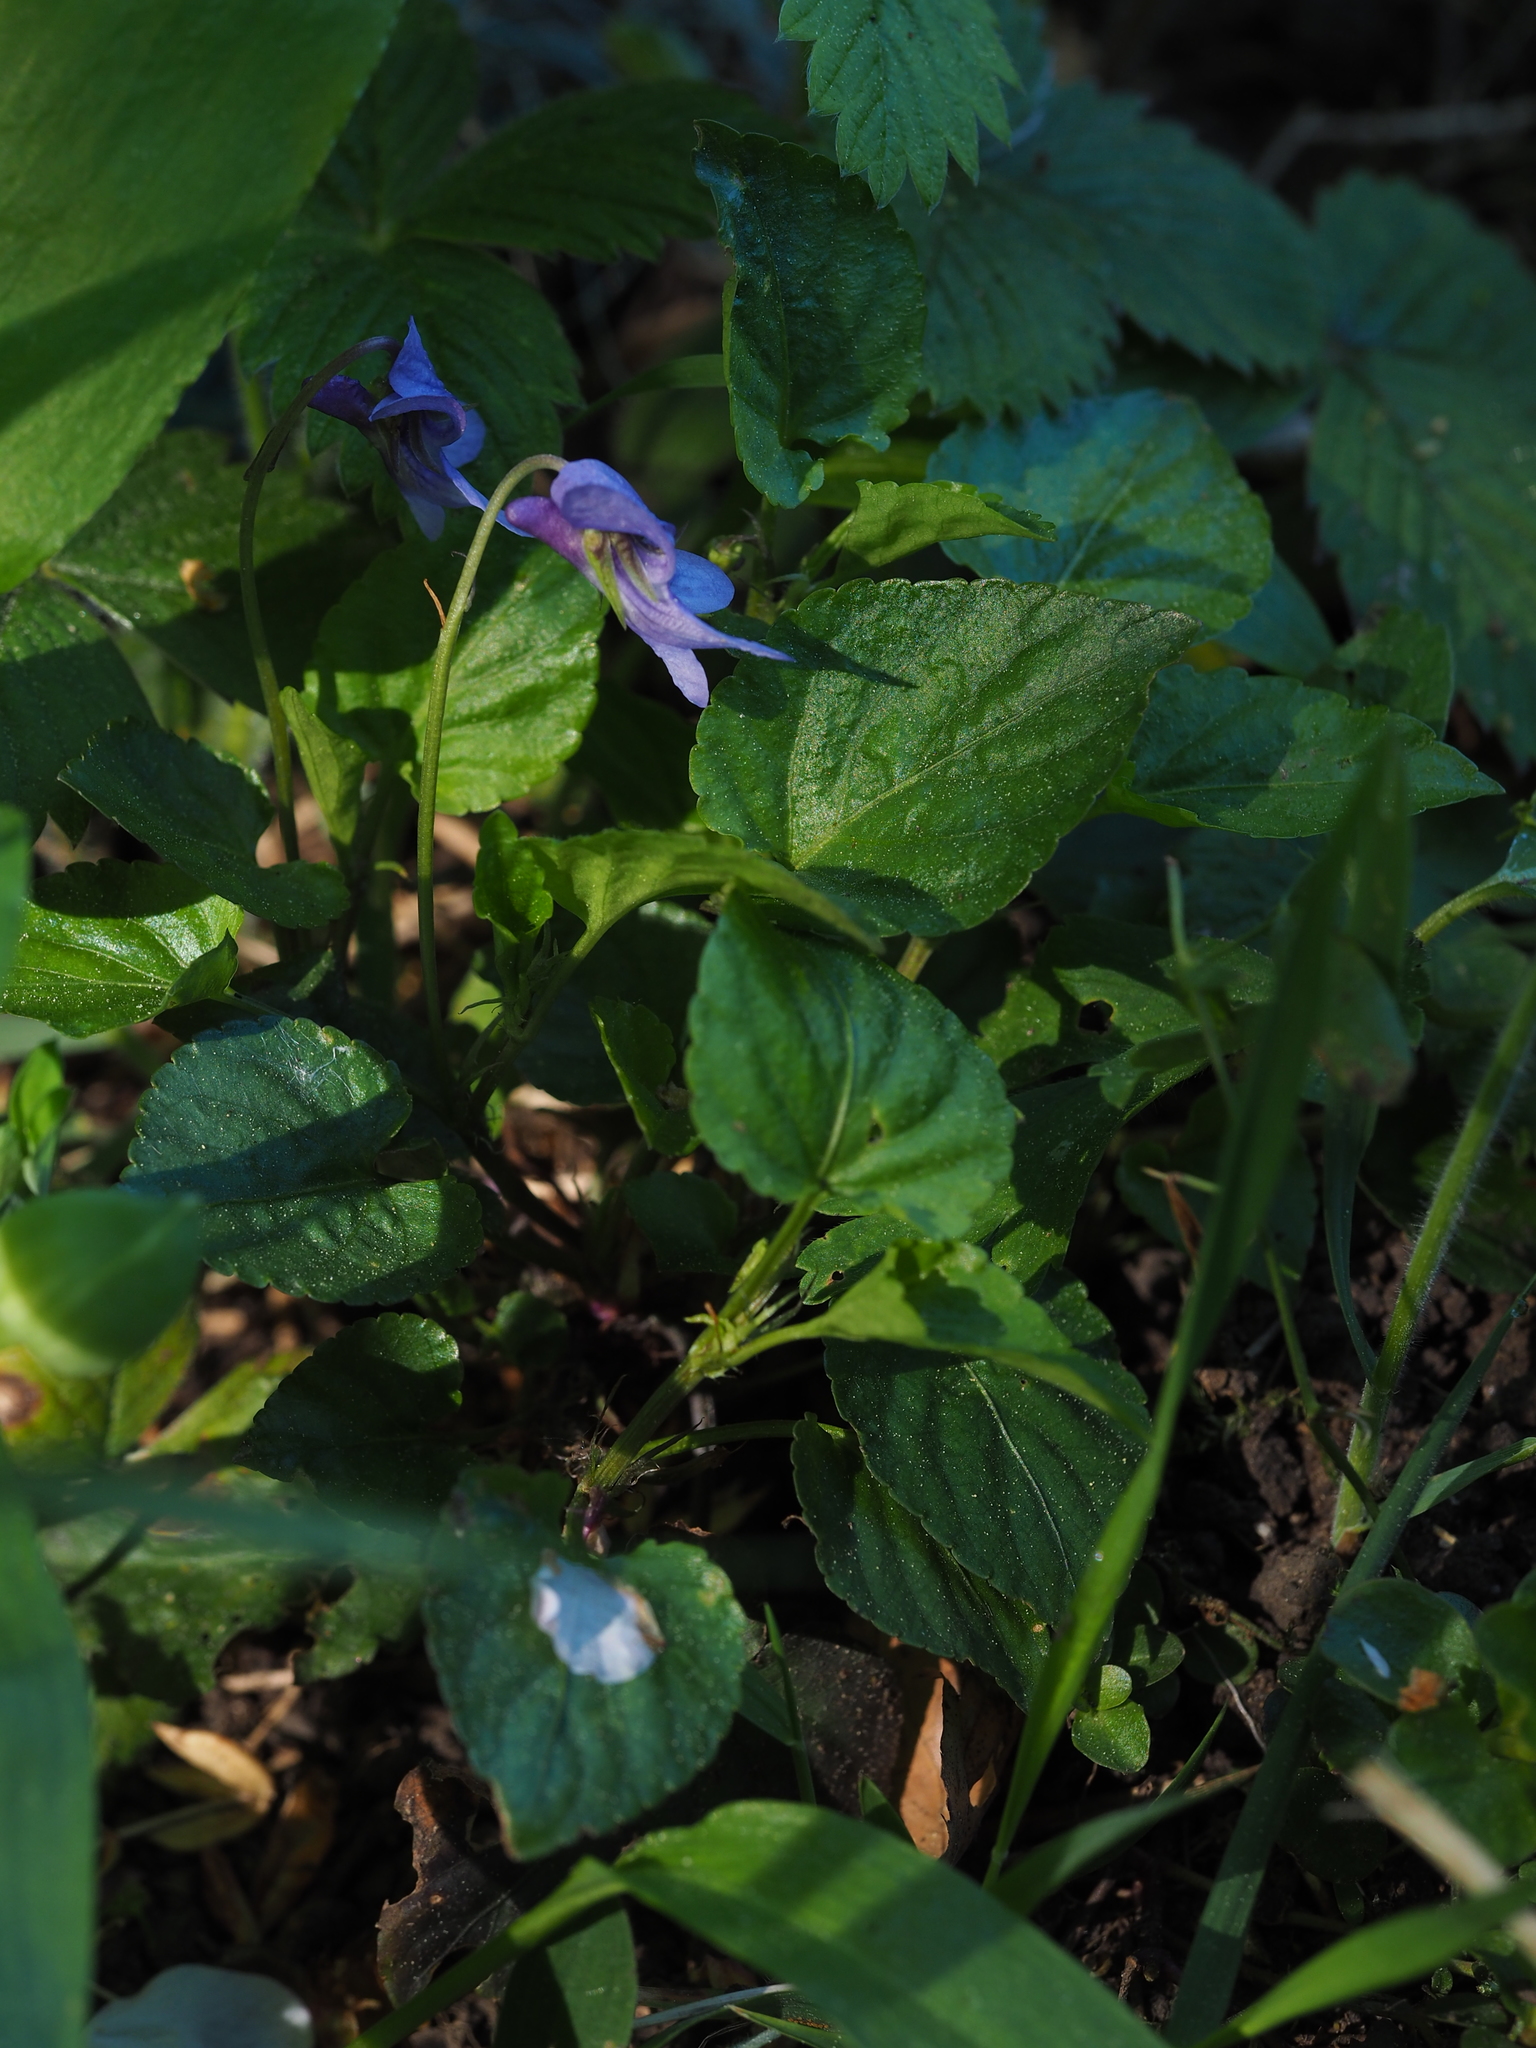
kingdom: Plantae
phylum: Tracheophyta
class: Magnoliopsida
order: Malpighiales
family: Violaceae
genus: Viola
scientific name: Viola reichenbachiana
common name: Early dog-violet
